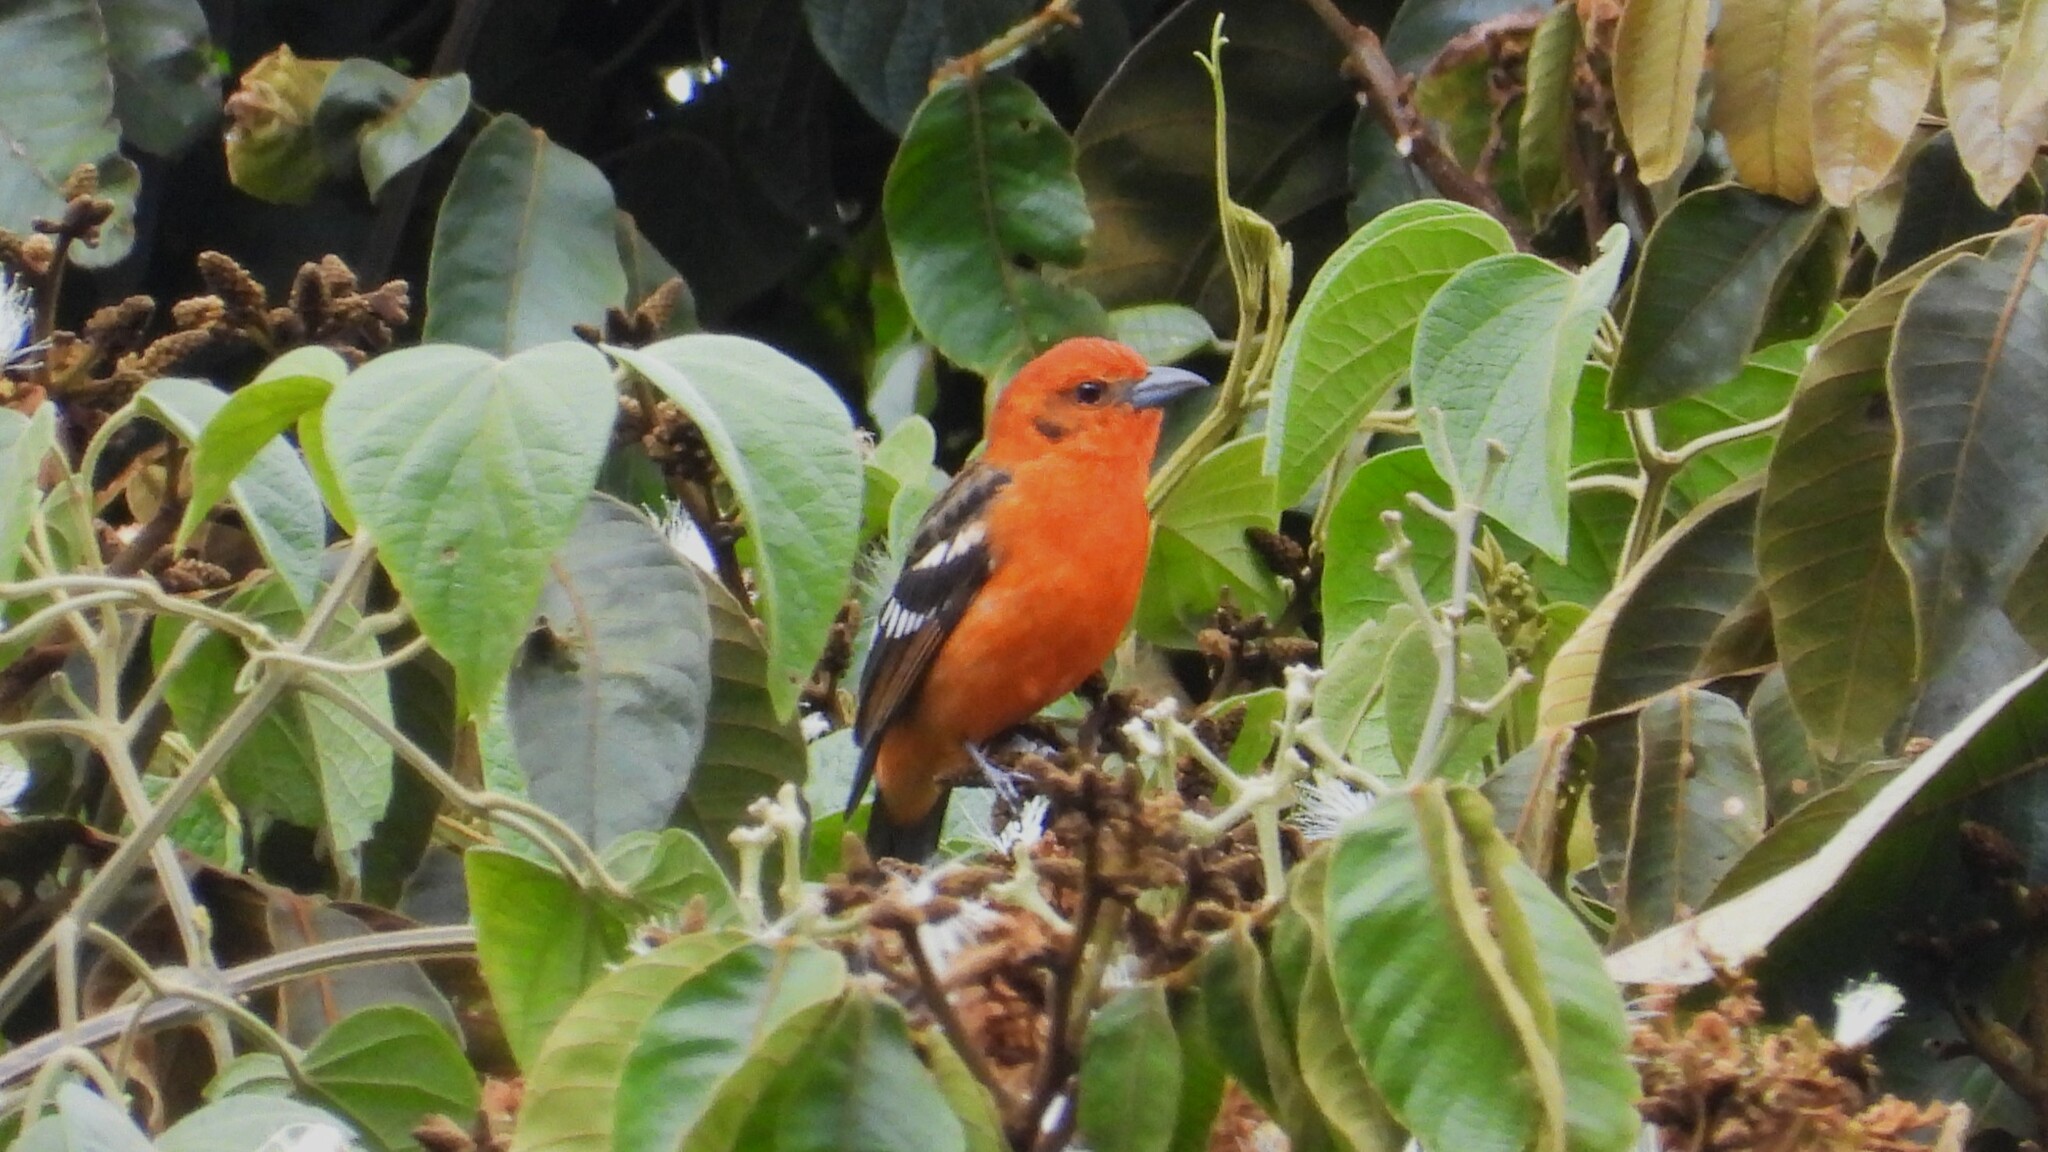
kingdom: Animalia
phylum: Chordata
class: Aves
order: Passeriformes
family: Cardinalidae
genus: Piranga
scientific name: Piranga bidentata
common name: Flame-colored tanager
